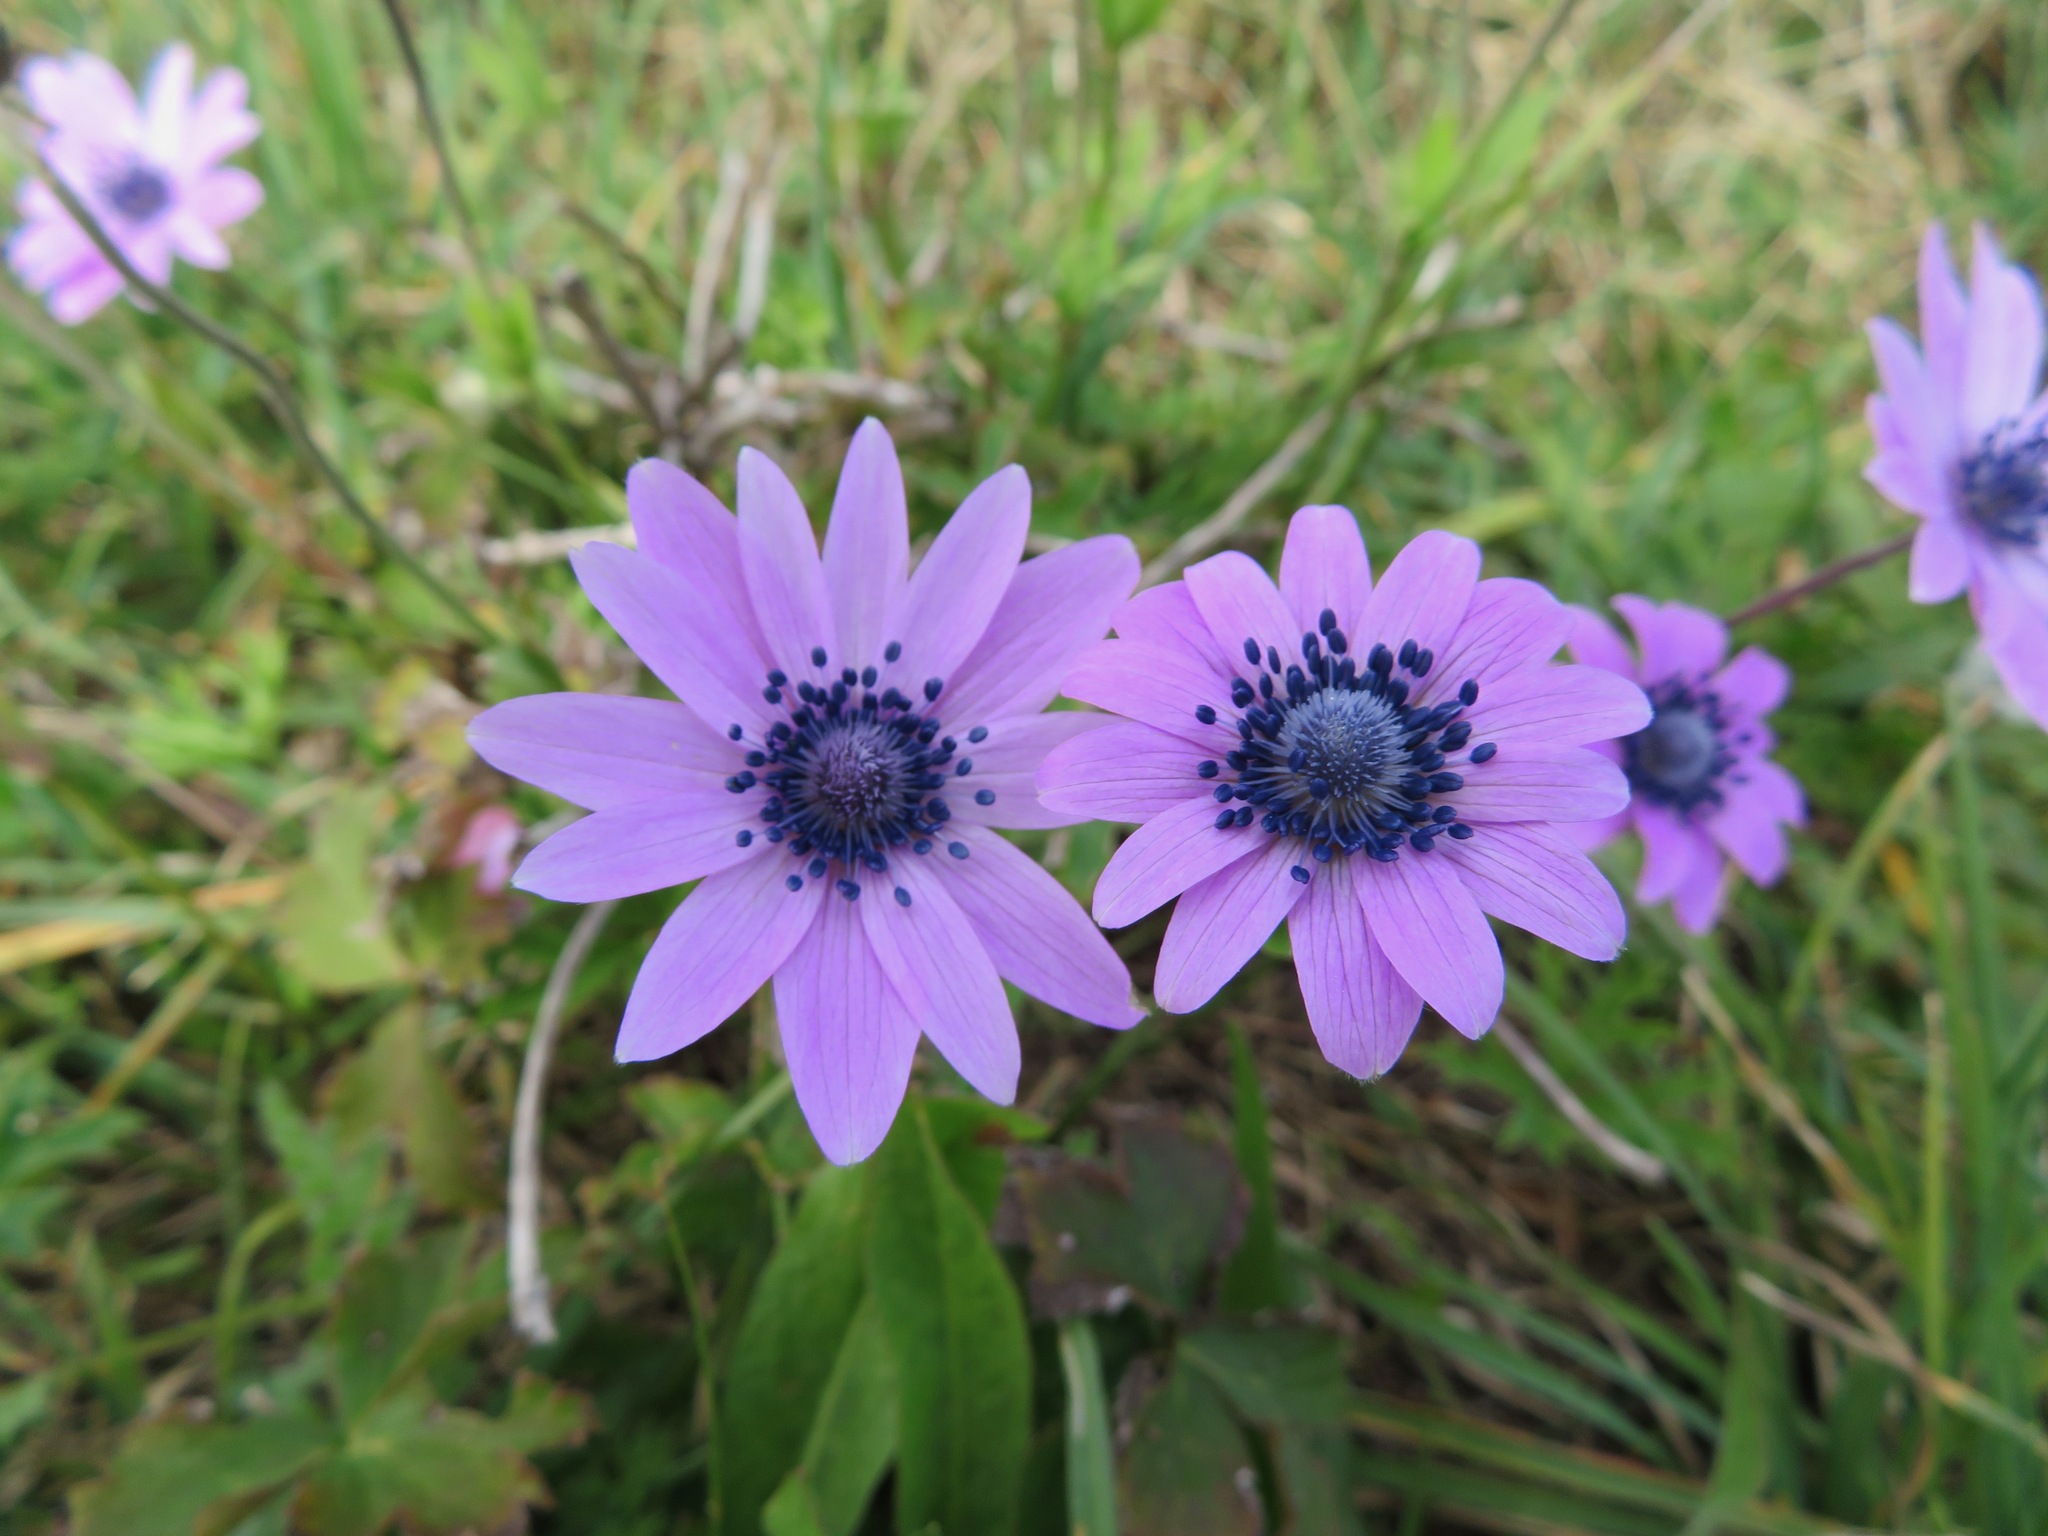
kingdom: Plantae
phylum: Tracheophyta
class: Magnoliopsida
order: Ranunculales
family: Ranunculaceae
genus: Anemone
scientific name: Anemone hortensis
